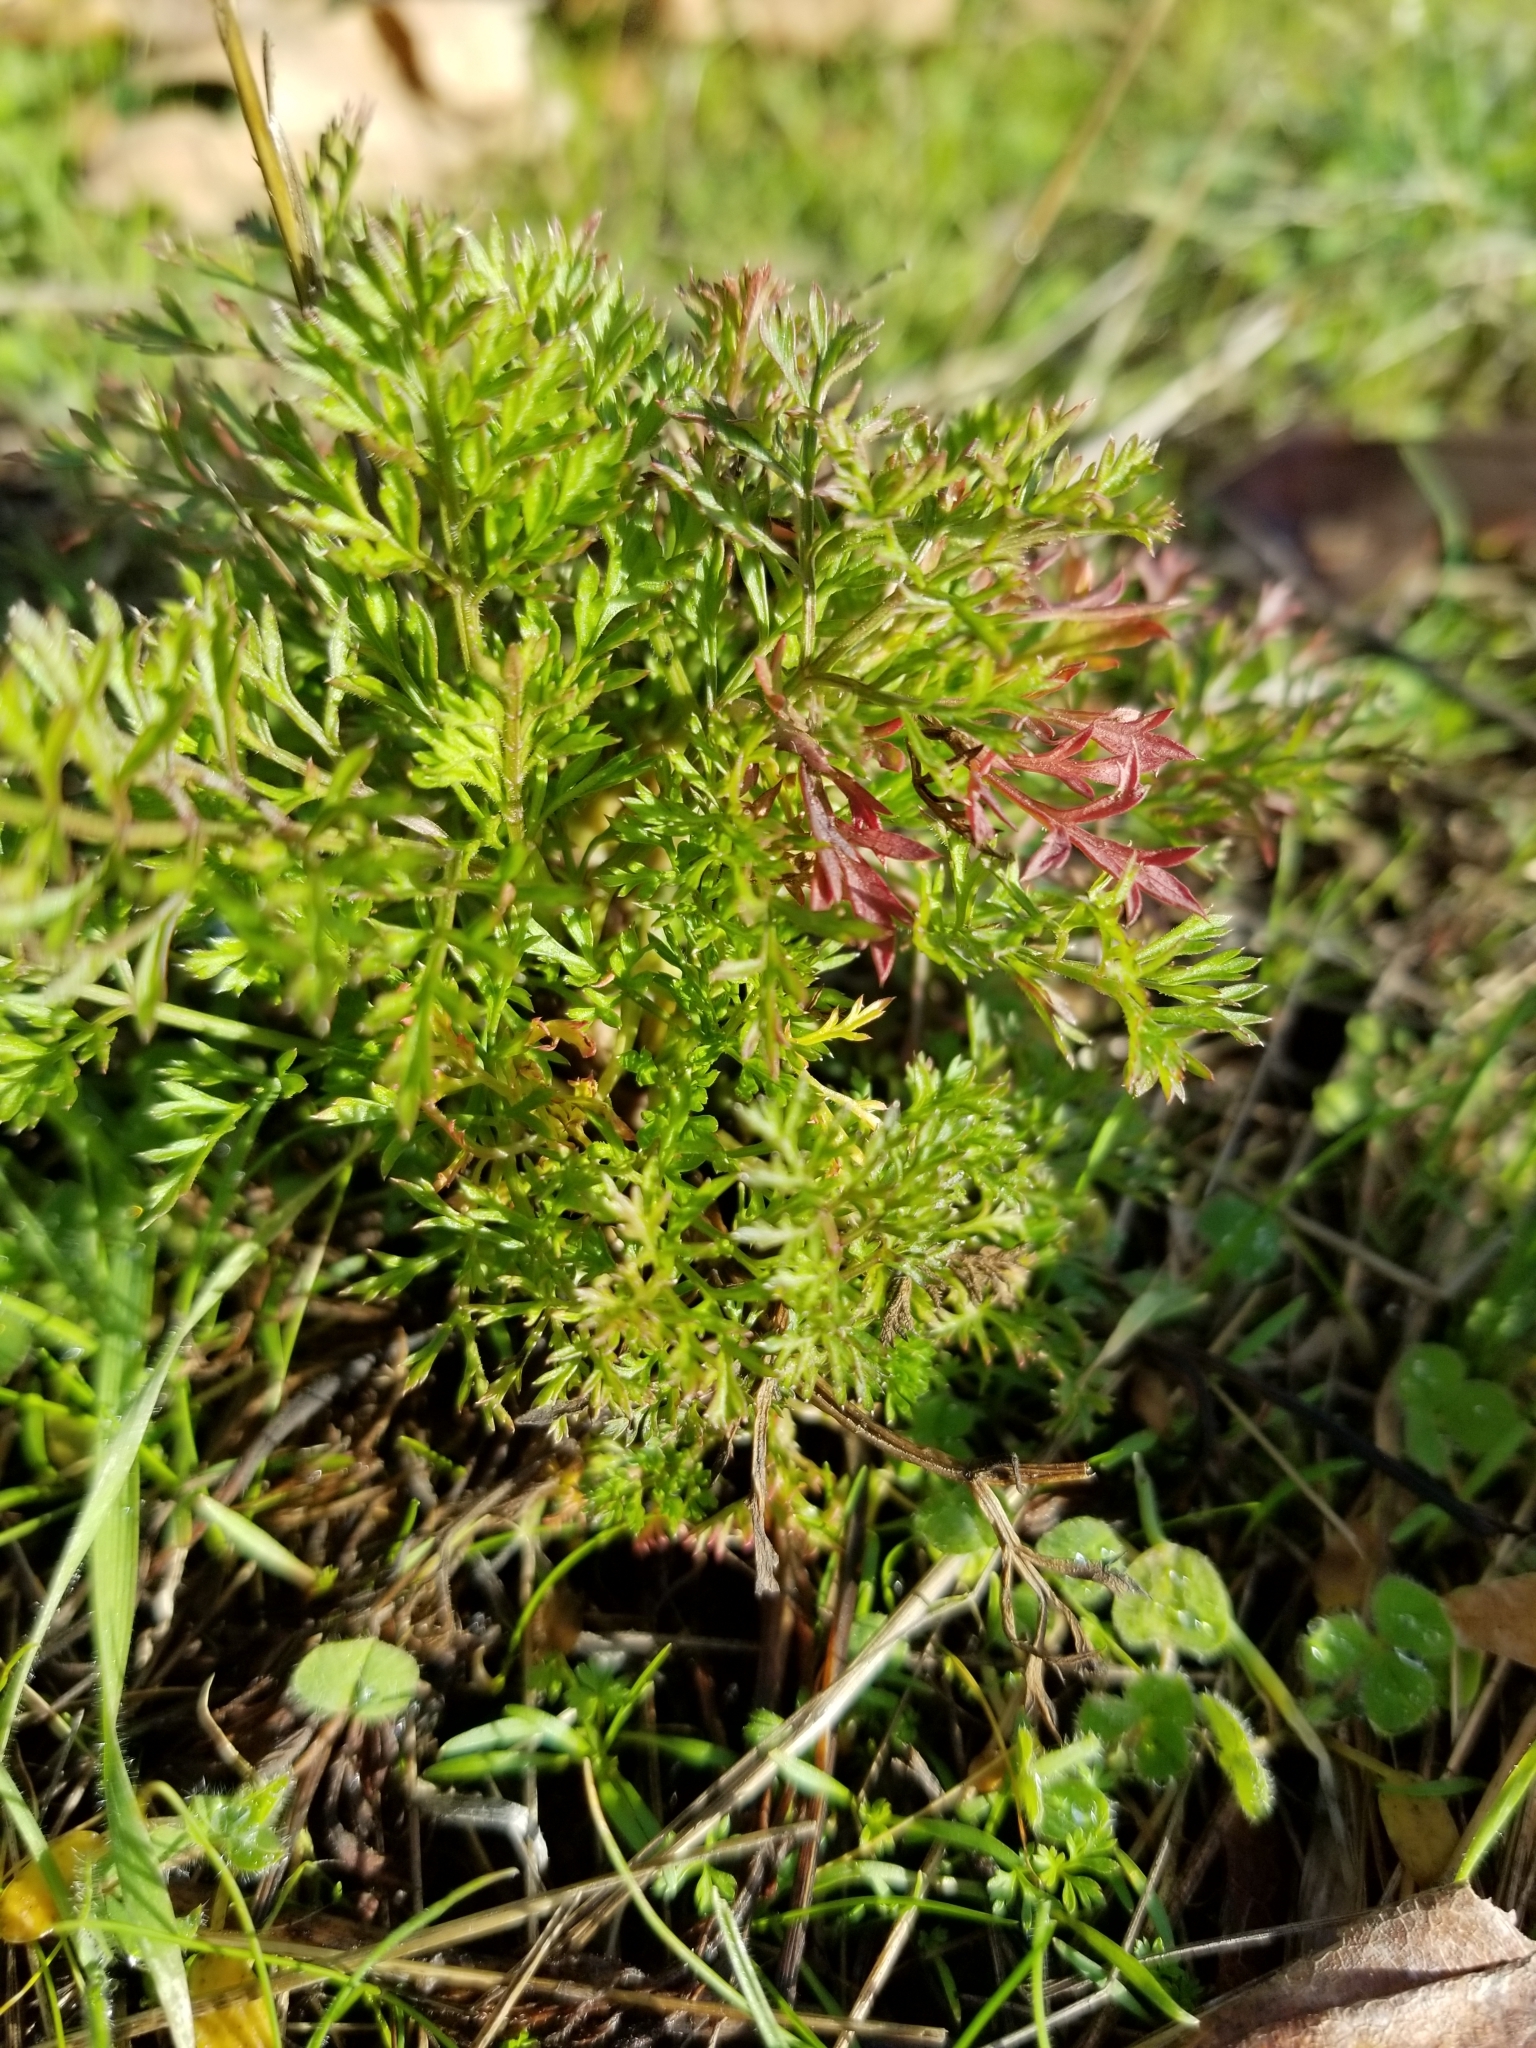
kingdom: Plantae
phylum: Tracheophyta
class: Magnoliopsida
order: Asterales
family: Asteraceae
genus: Soliva
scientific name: Soliva sessilis
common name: Field burrweed
